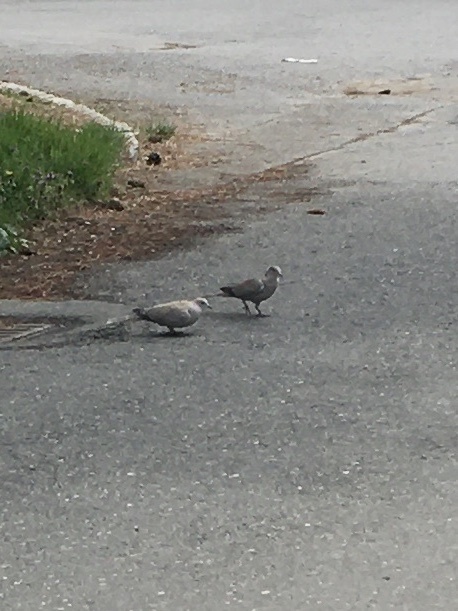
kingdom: Animalia
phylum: Chordata
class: Aves
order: Columbiformes
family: Columbidae
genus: Streptopelia
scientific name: Streptopelia decaocto
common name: Eurasian collared dove
